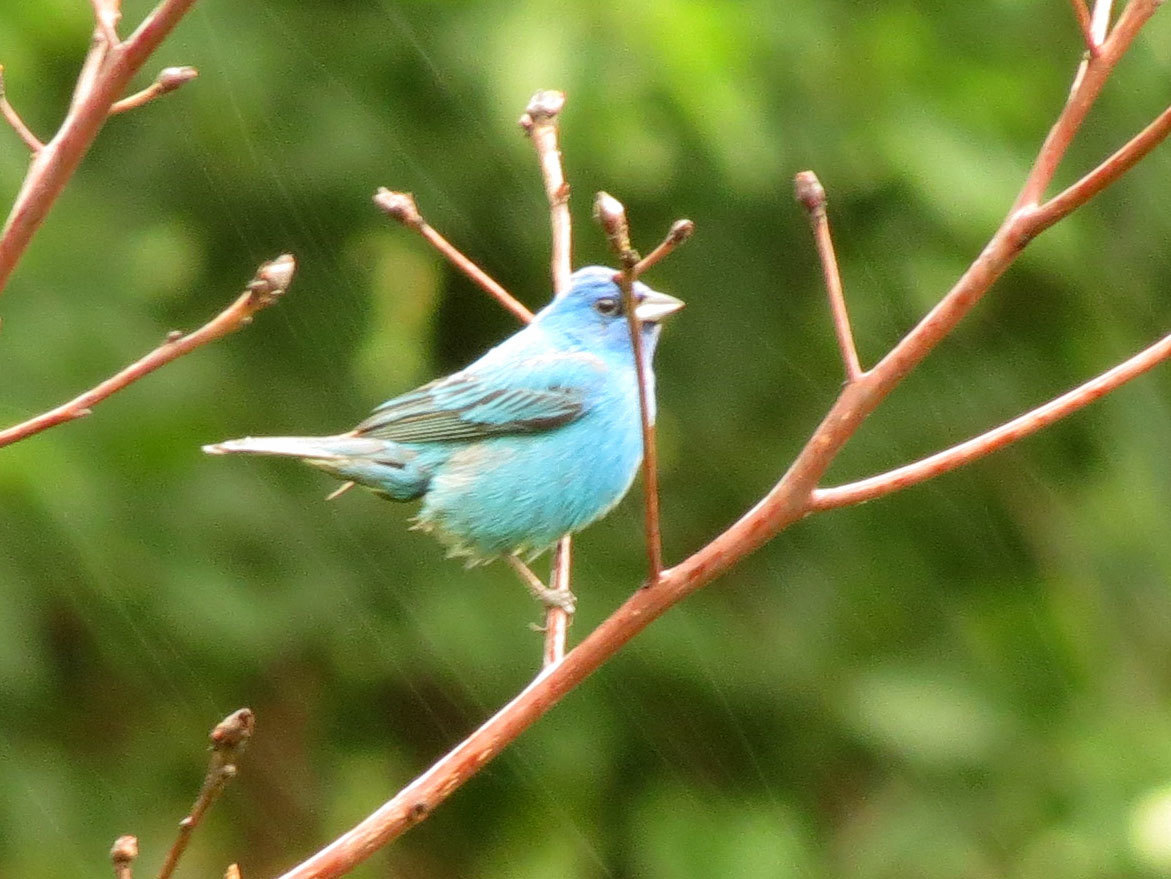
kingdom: Animalia
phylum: Chordata
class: Aves
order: Passeriformes
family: Cardinalidae
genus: Passerina
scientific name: Passerina cyanea
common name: Indigo bunting
